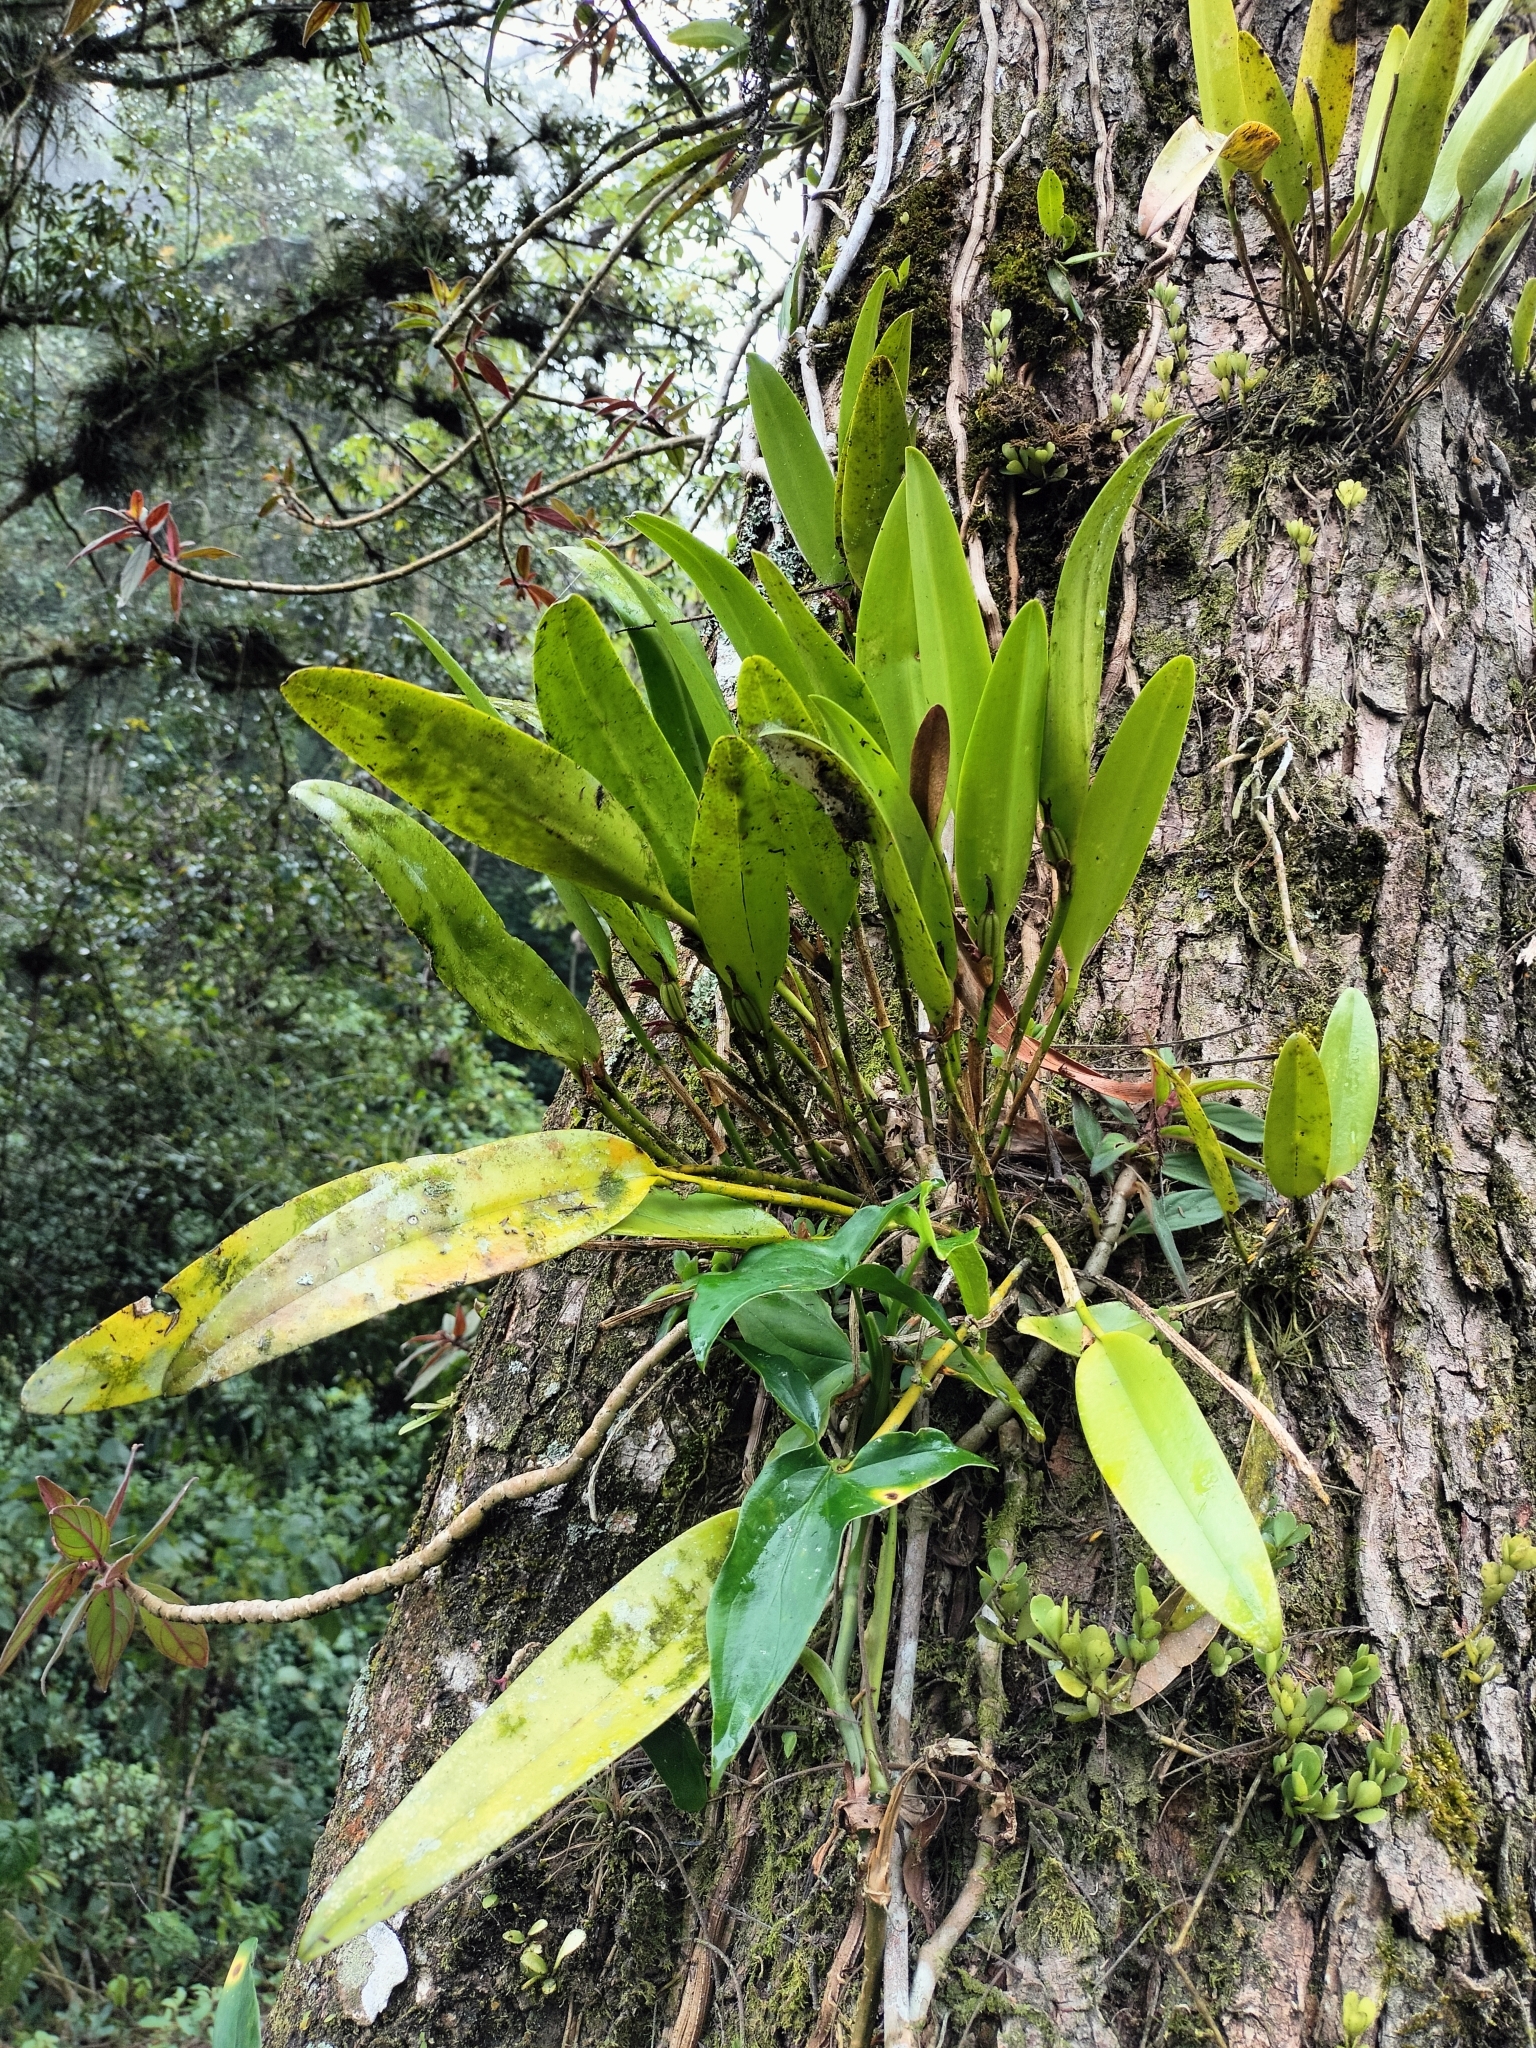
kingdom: Plantae
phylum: Tracheophyta
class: Liliopsida
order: Asparagales
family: Orchidaceae
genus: Restrepiella
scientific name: Restrepiella ophiocephala
